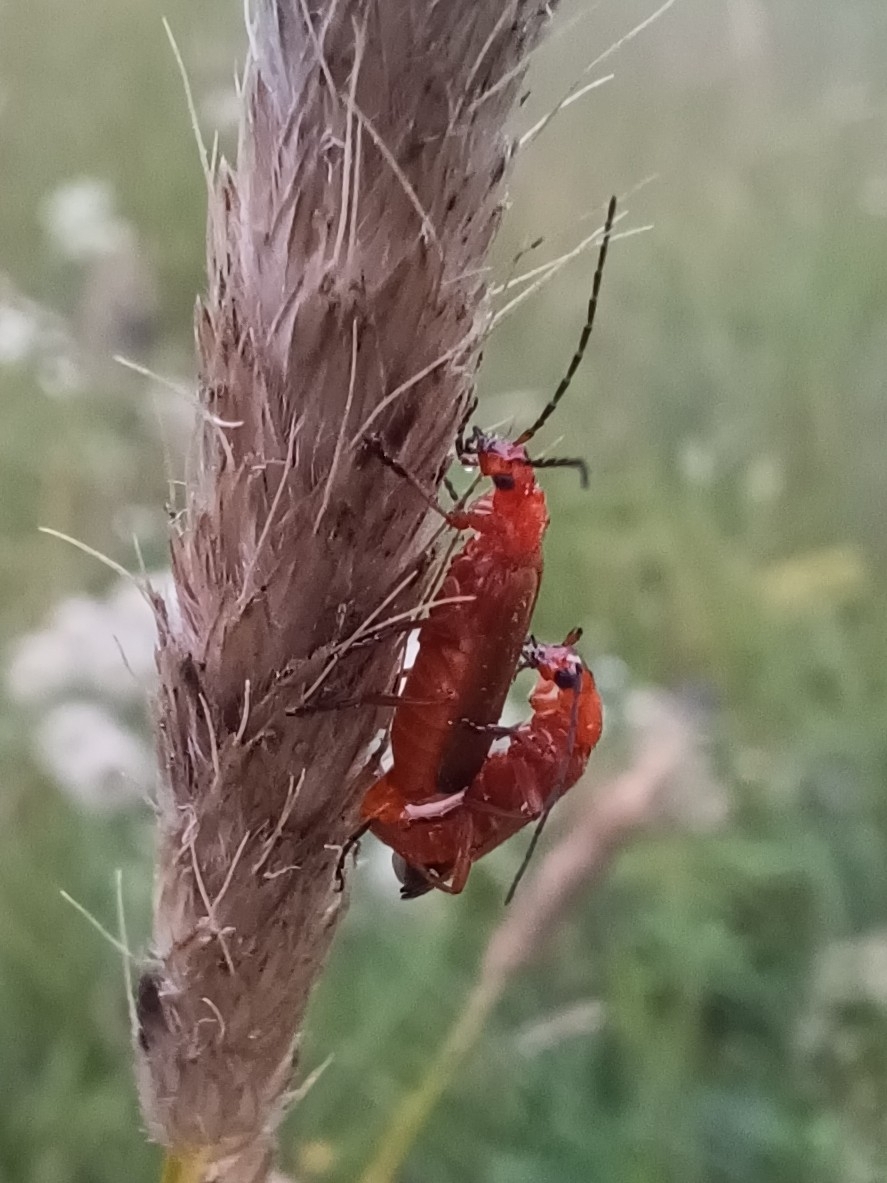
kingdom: Animalia
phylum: Arthropoda
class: Insecta
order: Coleoptera
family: Cantharidae
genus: Rhagonycha
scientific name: Rhagonycha fulva
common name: Common red soldier beetle
